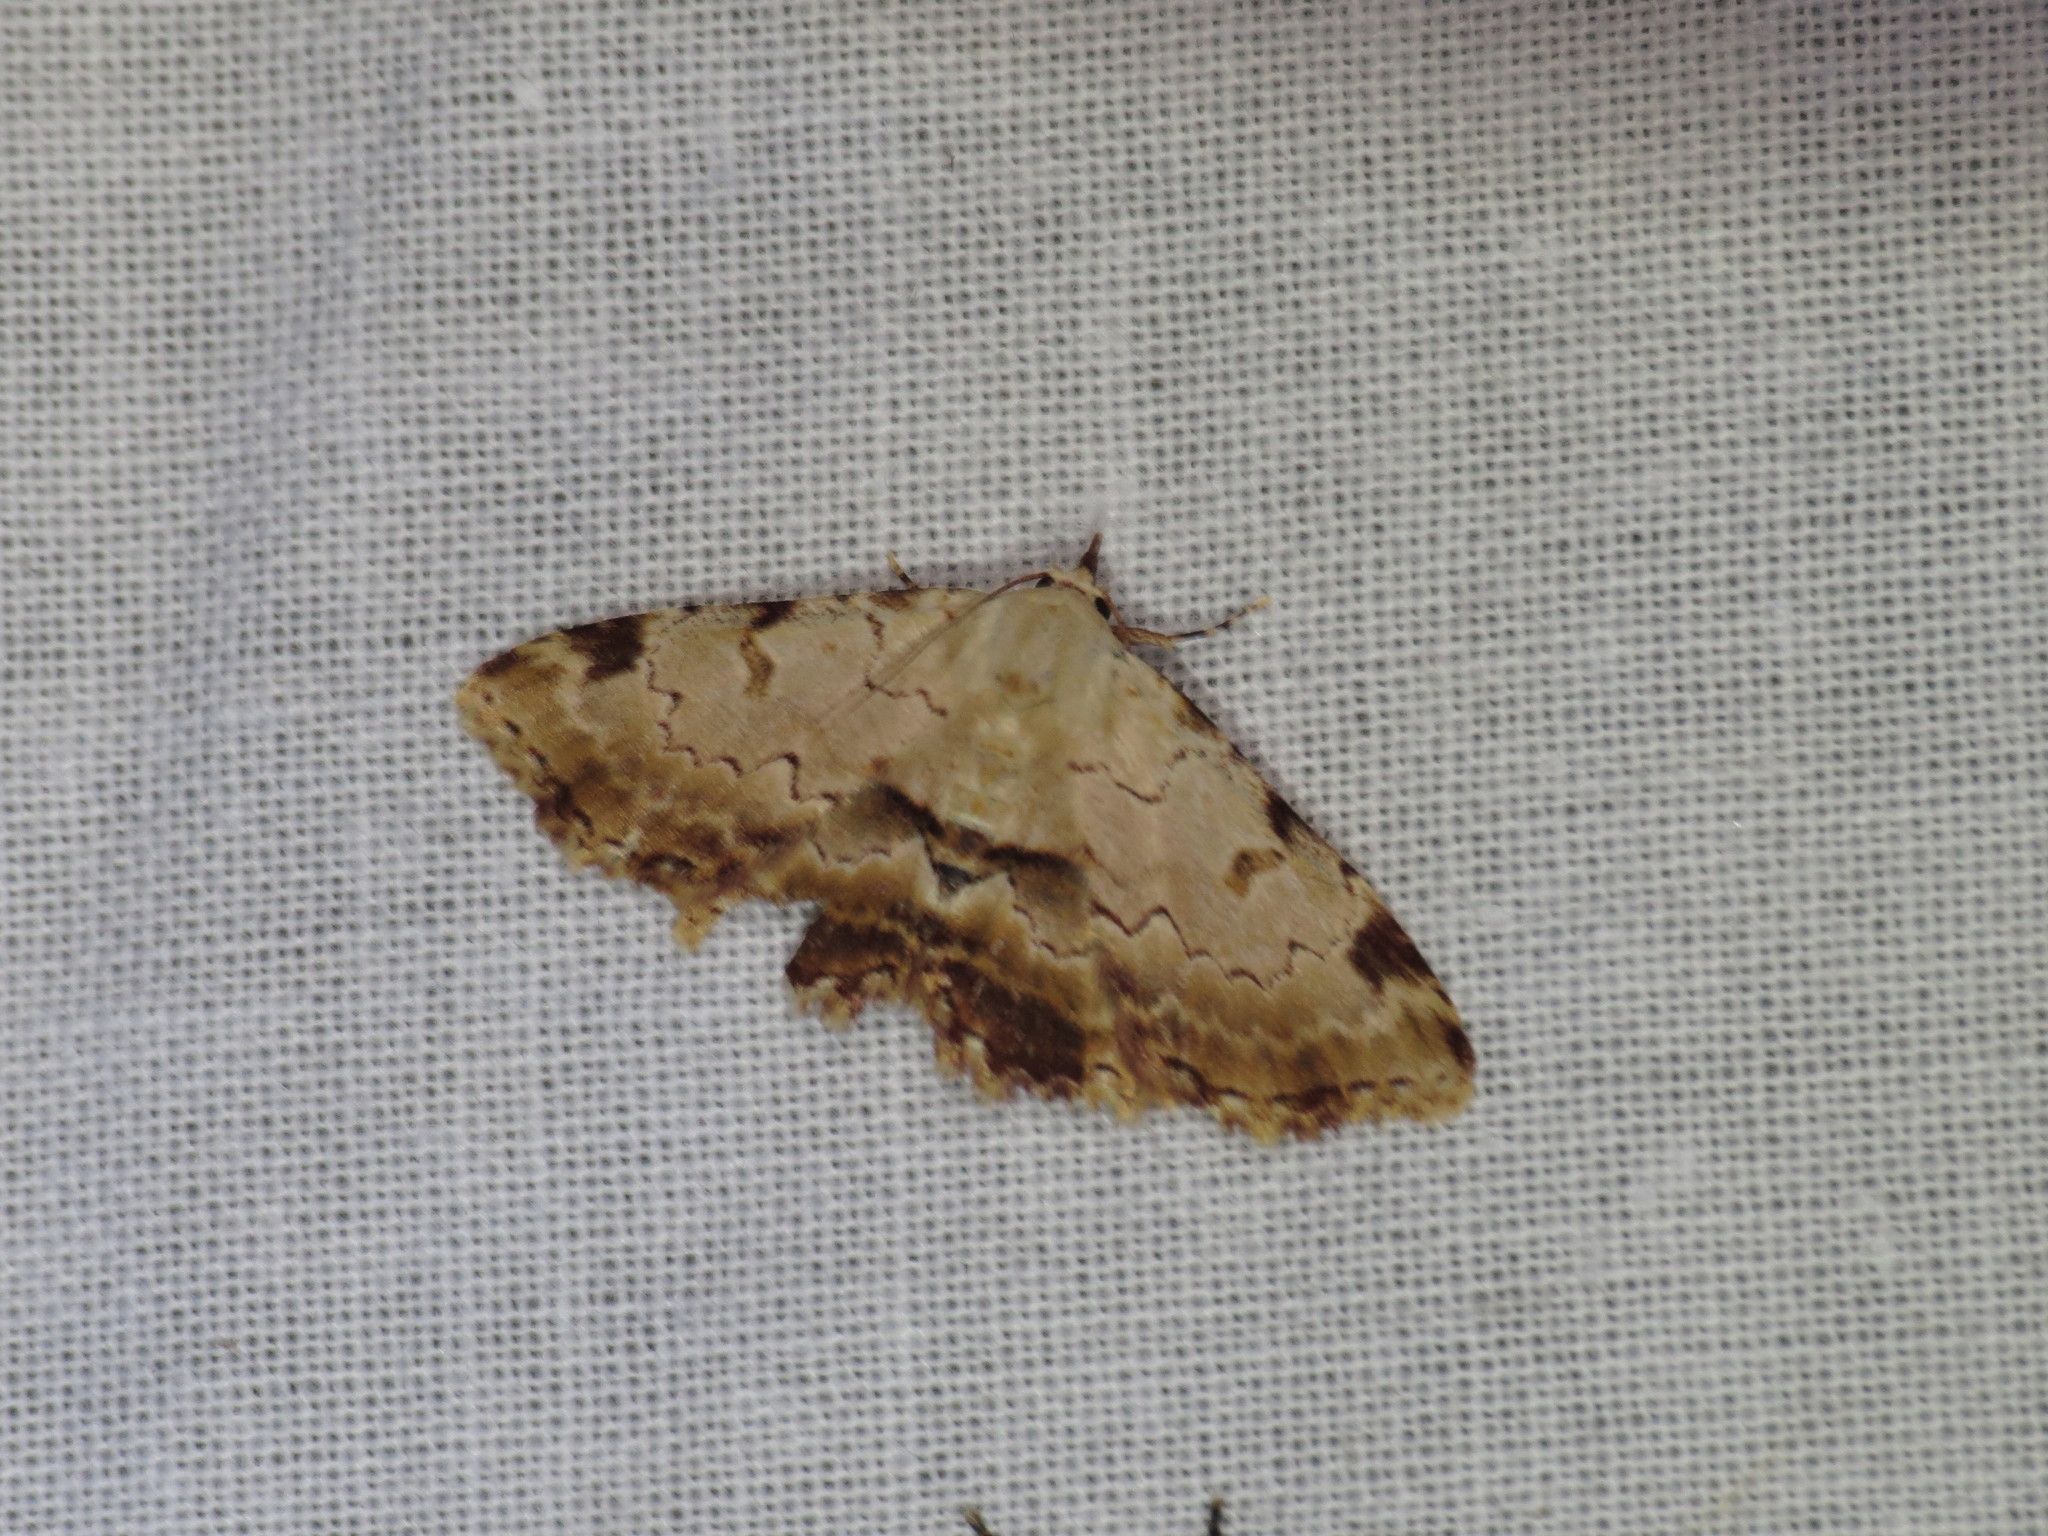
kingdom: Animalia
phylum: Arthropoda
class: Insecta
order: Lepidoptera
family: Erebidae
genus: Sandava
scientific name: Sandava xylistis
